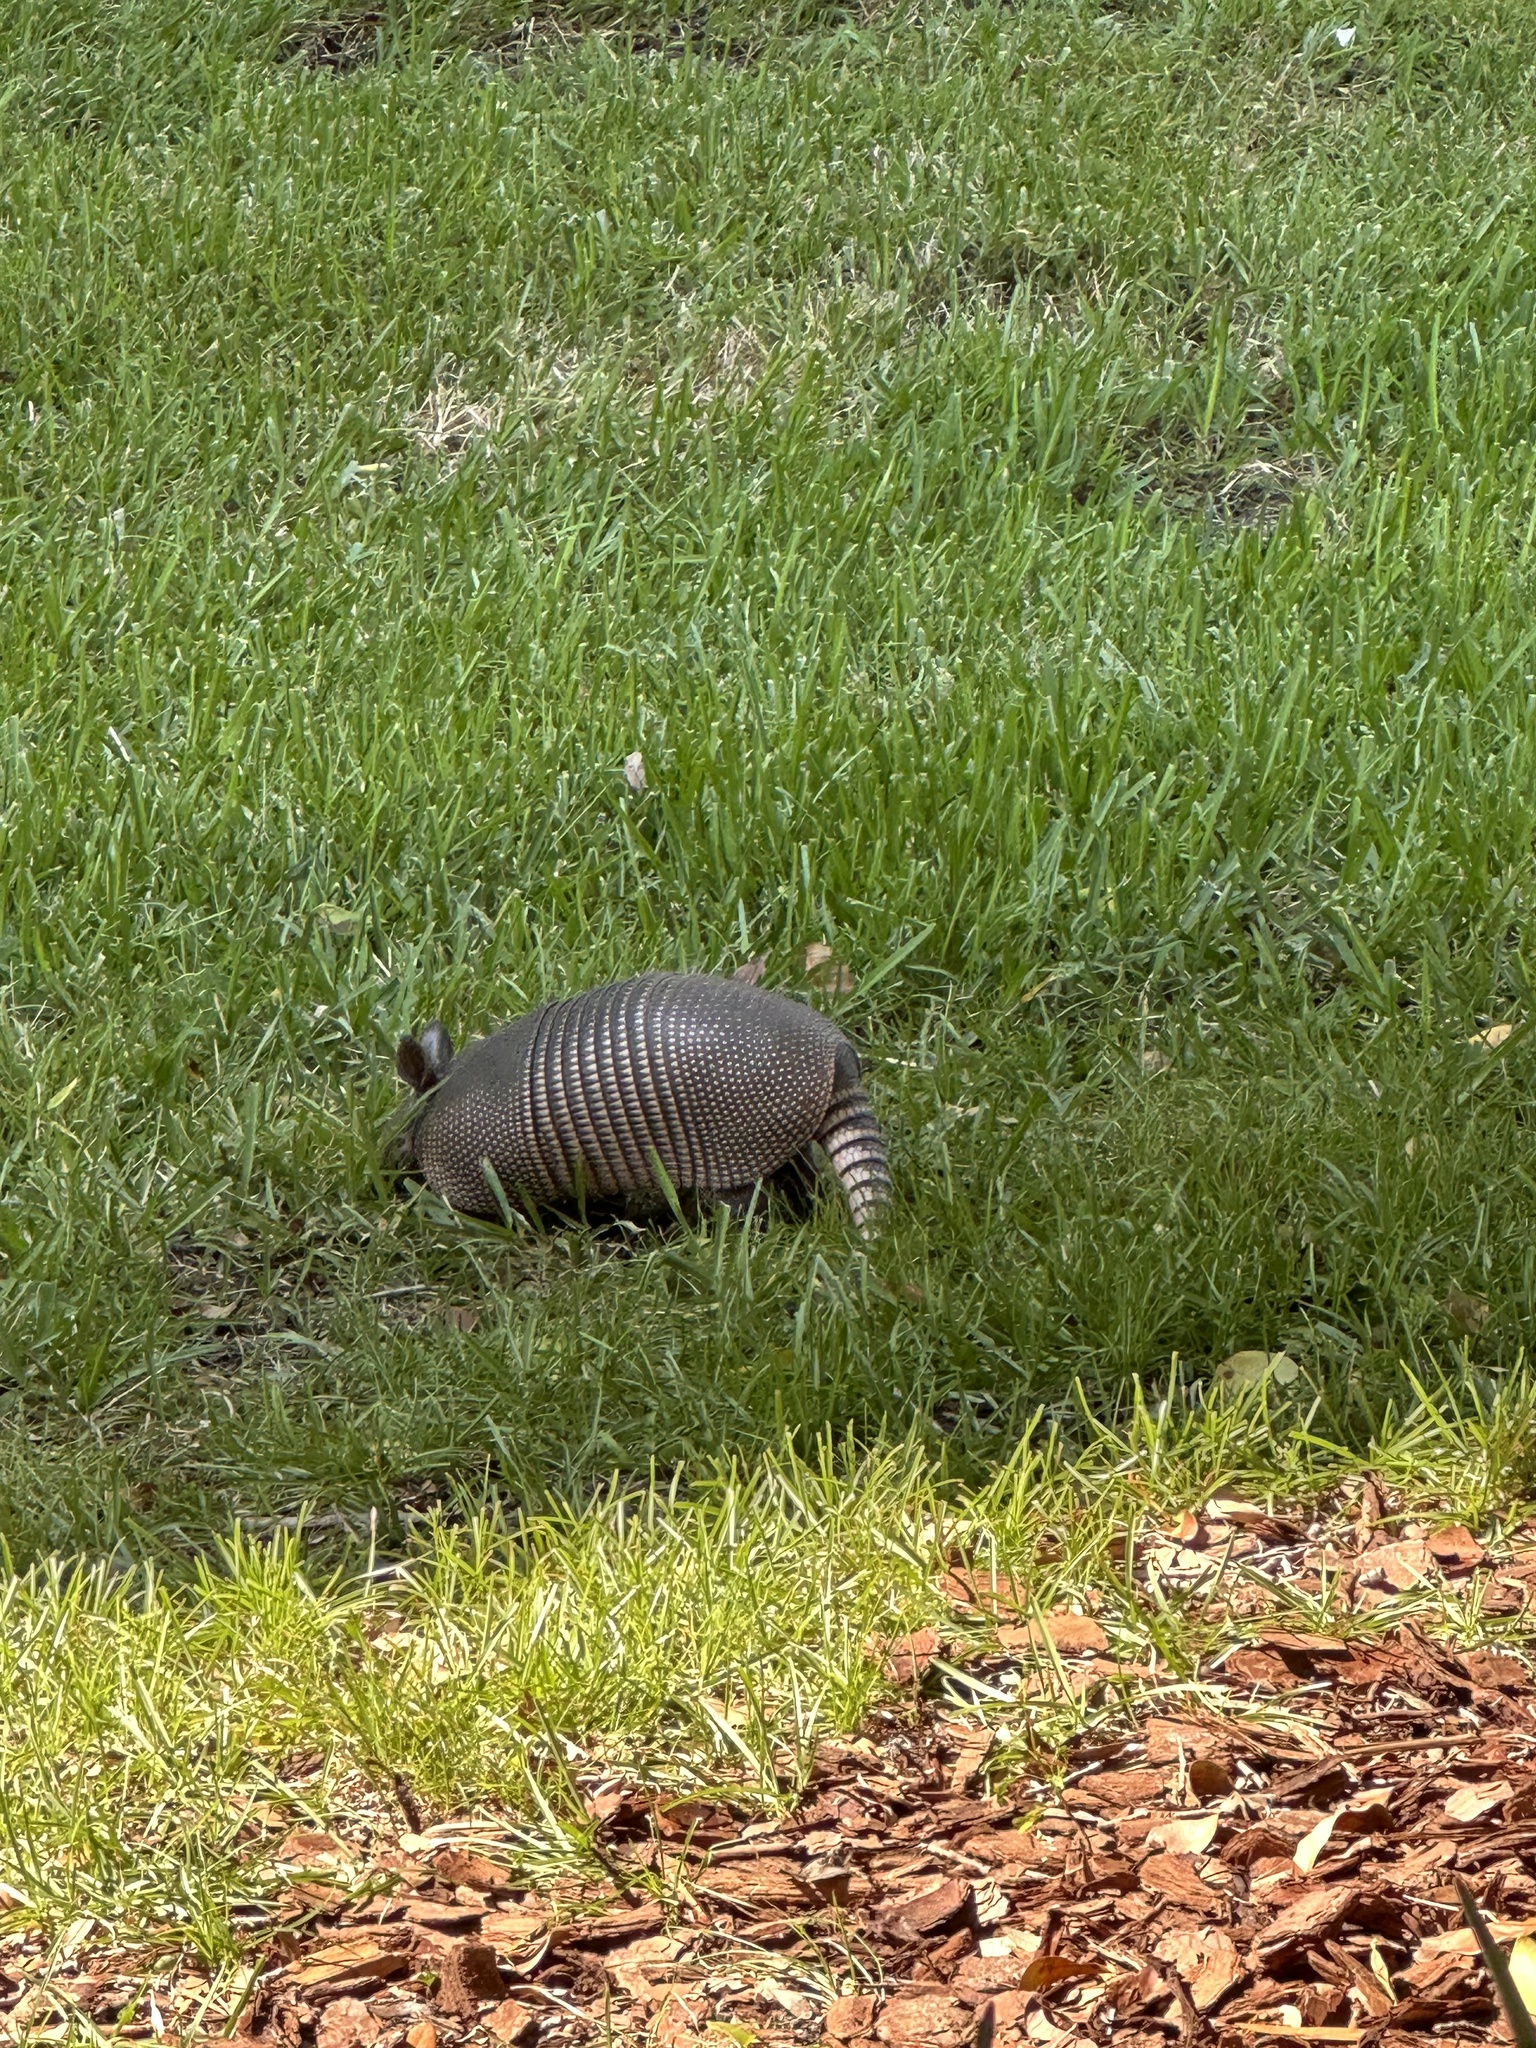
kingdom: Animalia
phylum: Chordata
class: Mammalia
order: Cingulata
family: Dasypodidae
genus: Dasypus
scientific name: Dasypus novemcinctus
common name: Nine-banded armadillo
